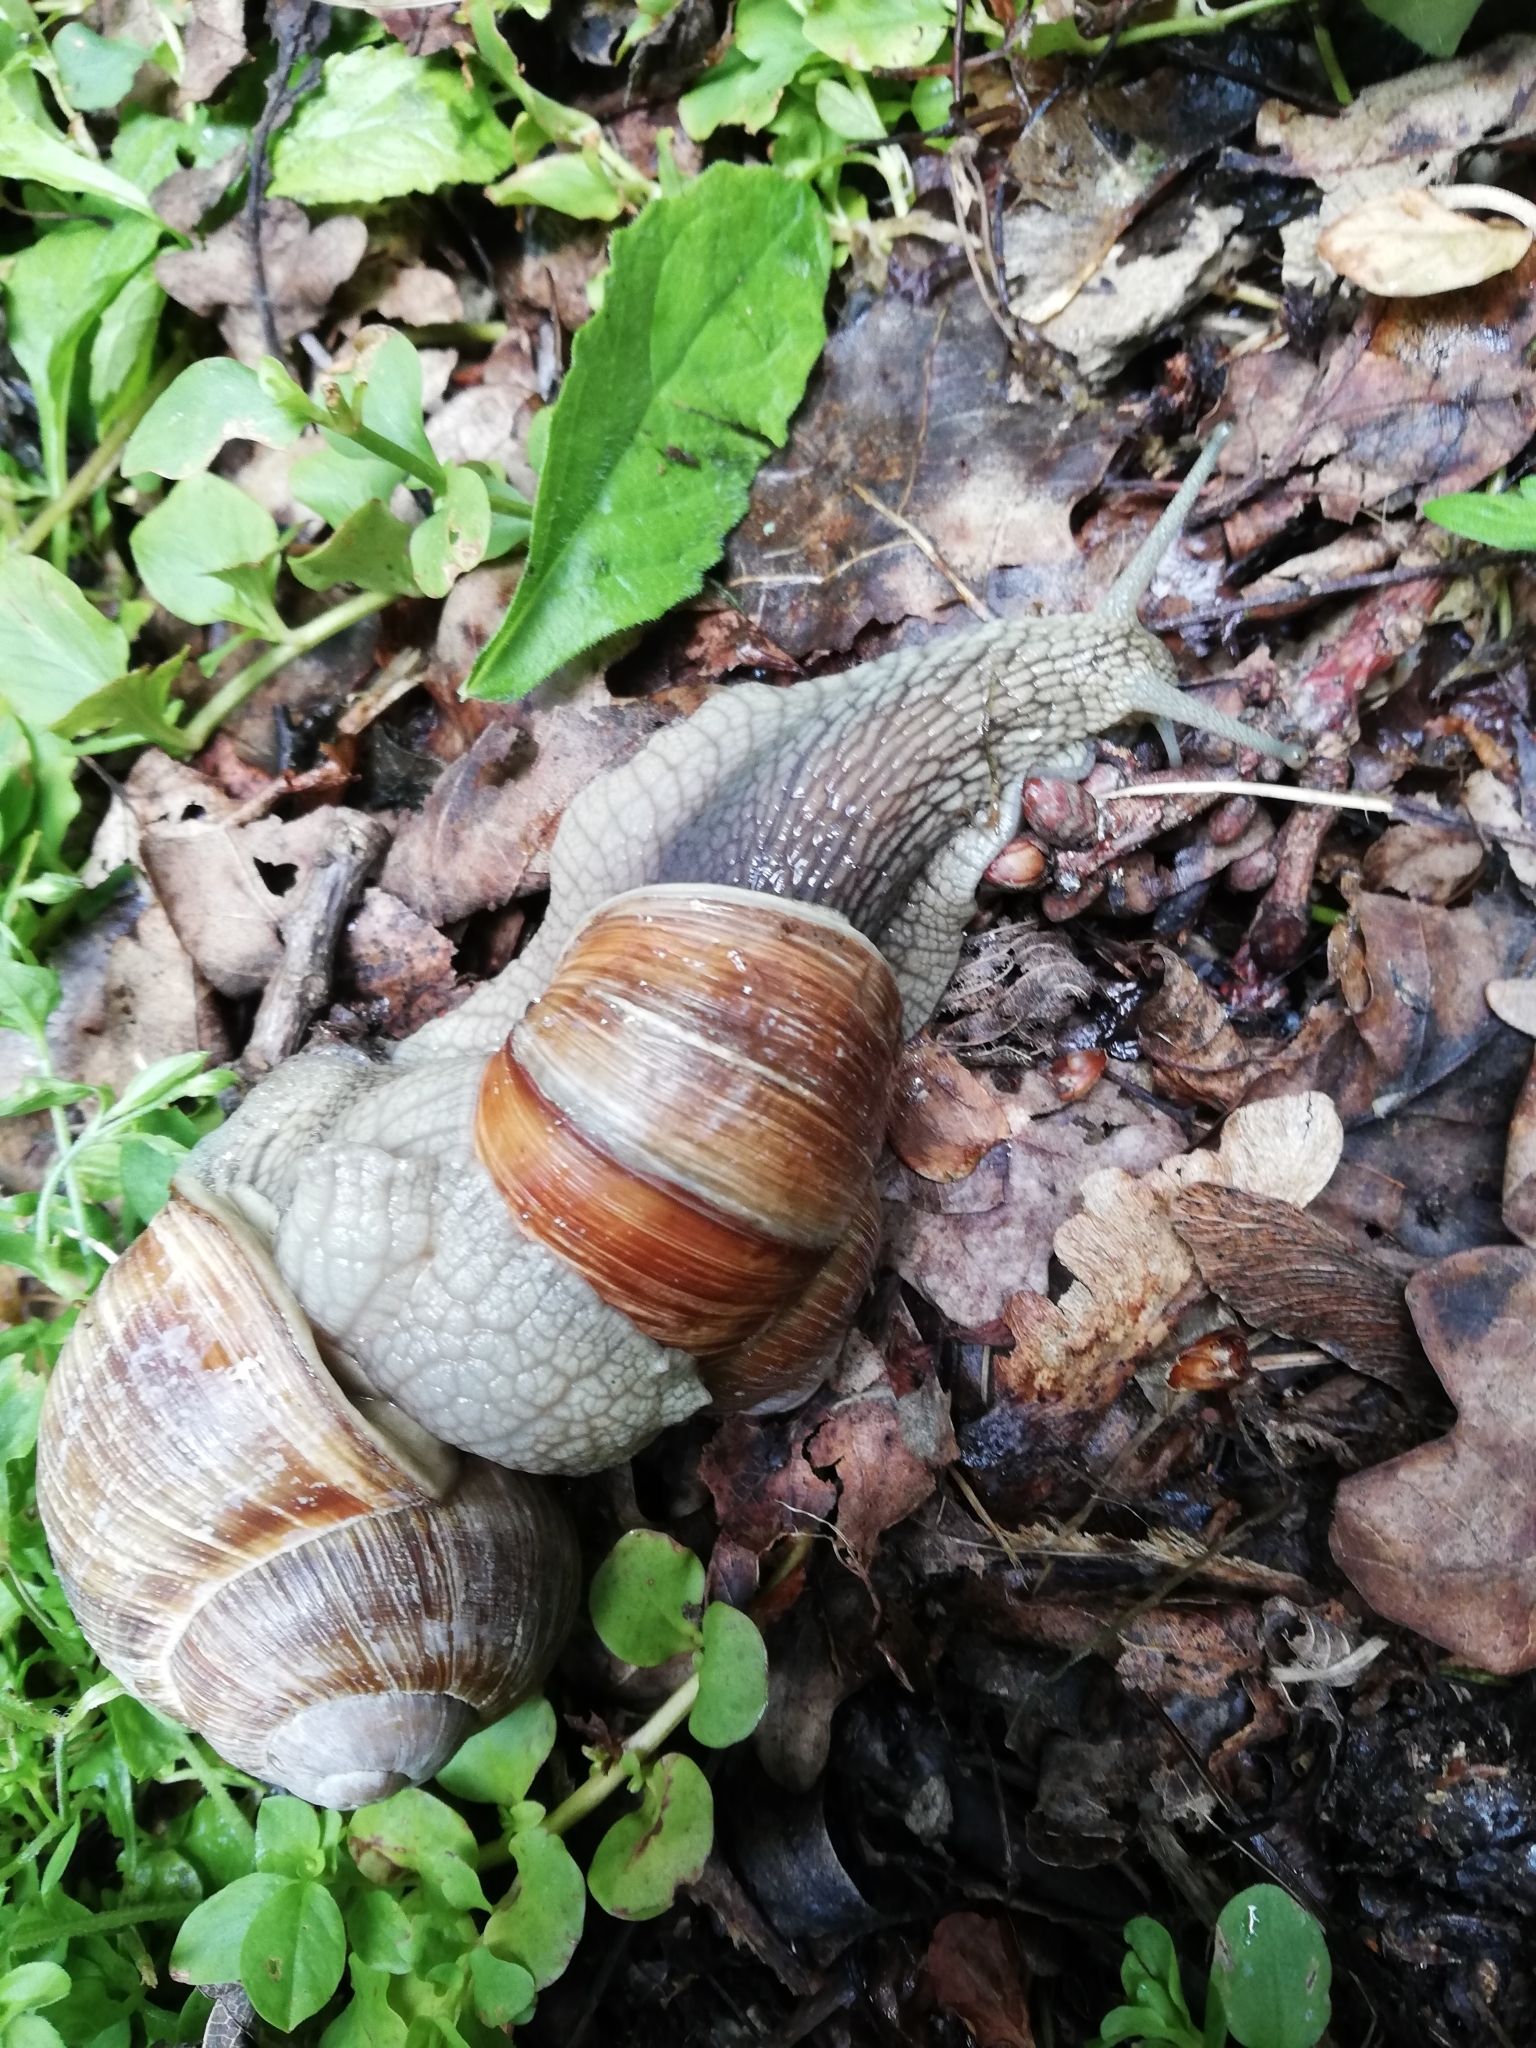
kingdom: Animalia
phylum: Mollusca
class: Gastropoda
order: Stylommatophora
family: Helicidae
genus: Helix
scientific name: Helix pomatia
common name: Roman snail
